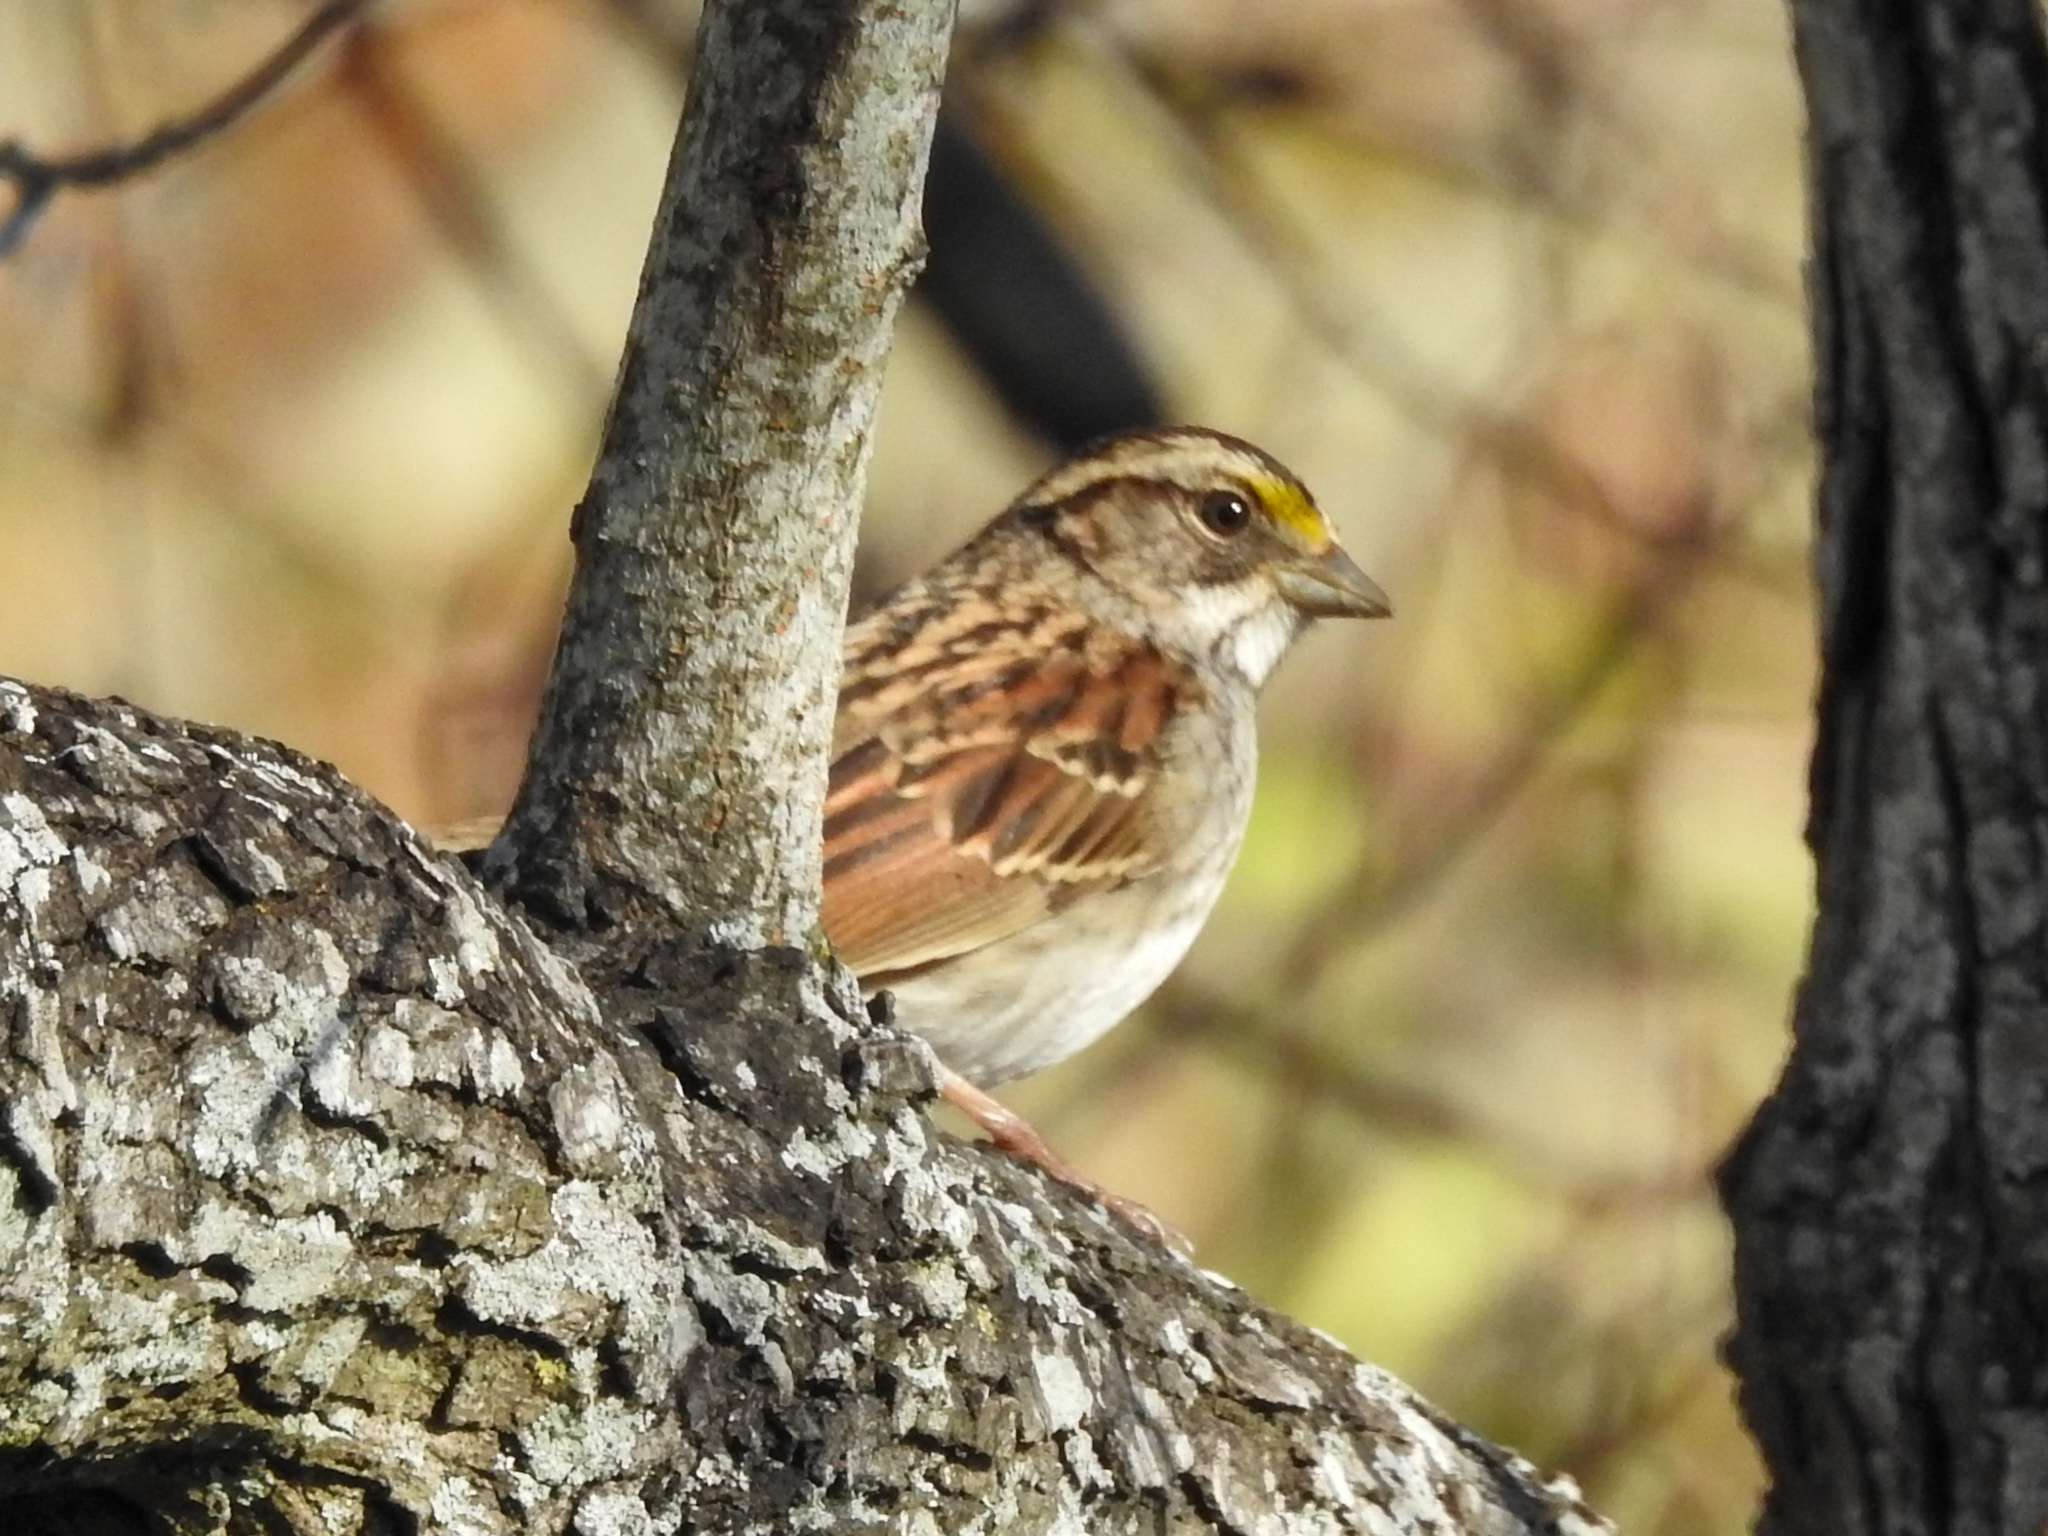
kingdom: Animalia
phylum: Chordata
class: Aves
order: Passeriformes
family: Passerellidae
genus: Zonotrichia
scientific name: Zonotrichia albicollis
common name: White-throated sparrow
